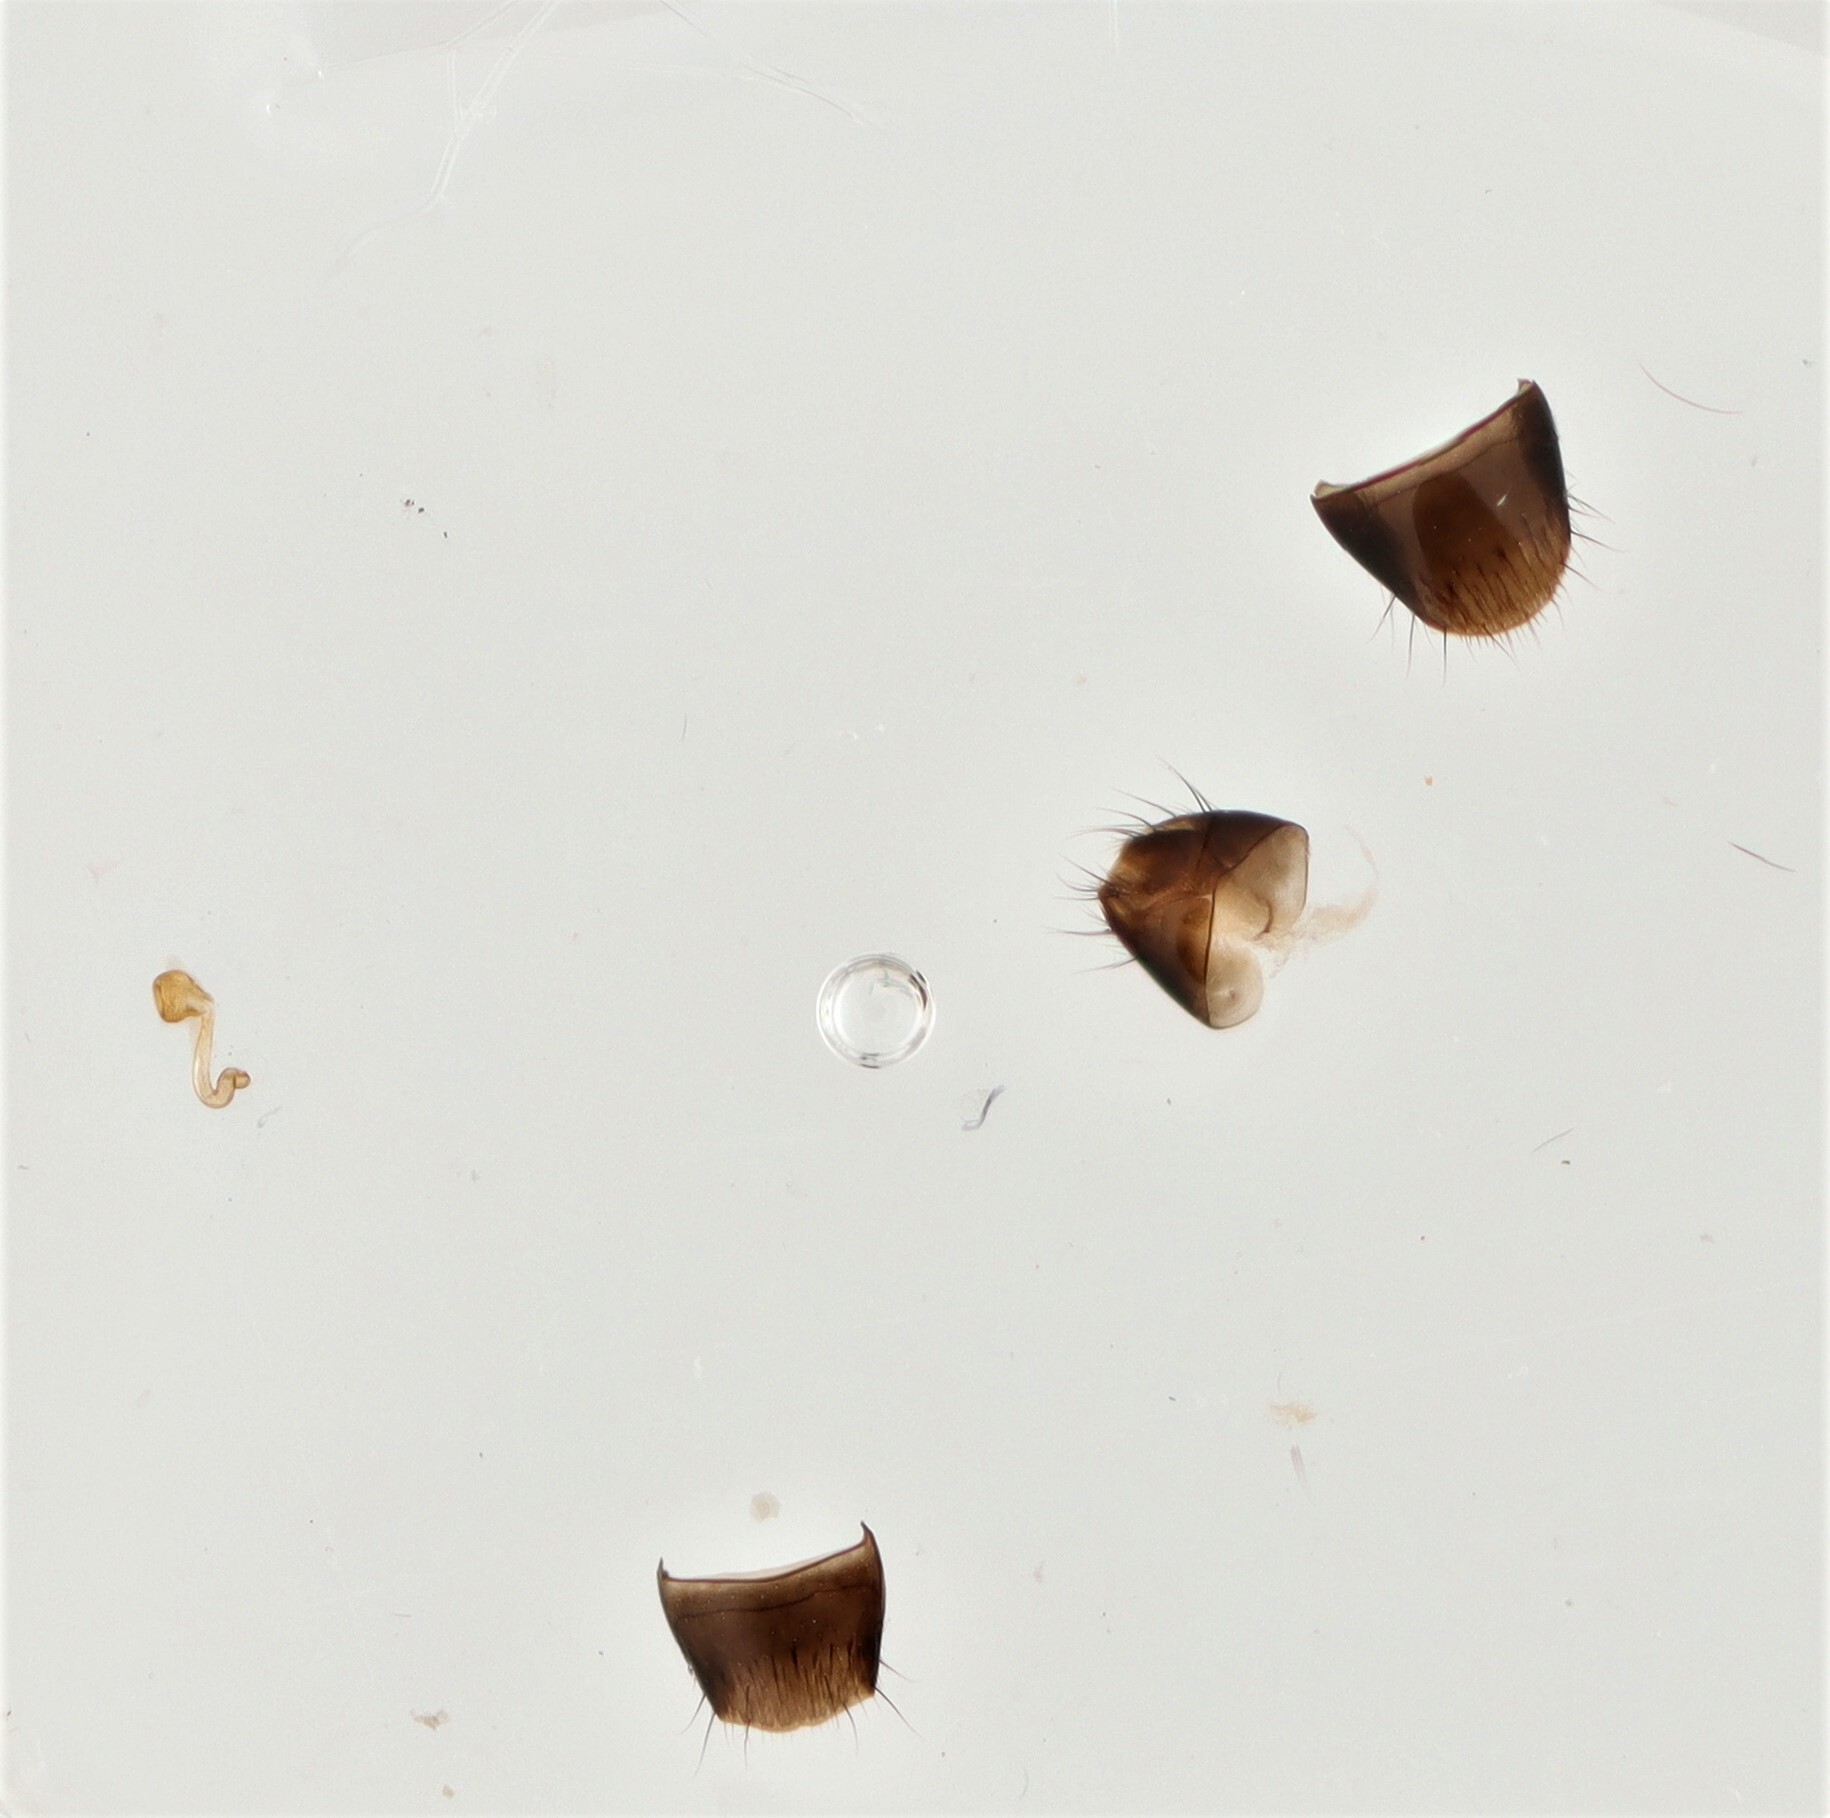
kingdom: Animalia
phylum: Arthropoda
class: Insecta
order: Coleoptera
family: Staphylinidae
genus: Atheta
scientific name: Atheta giguereae
